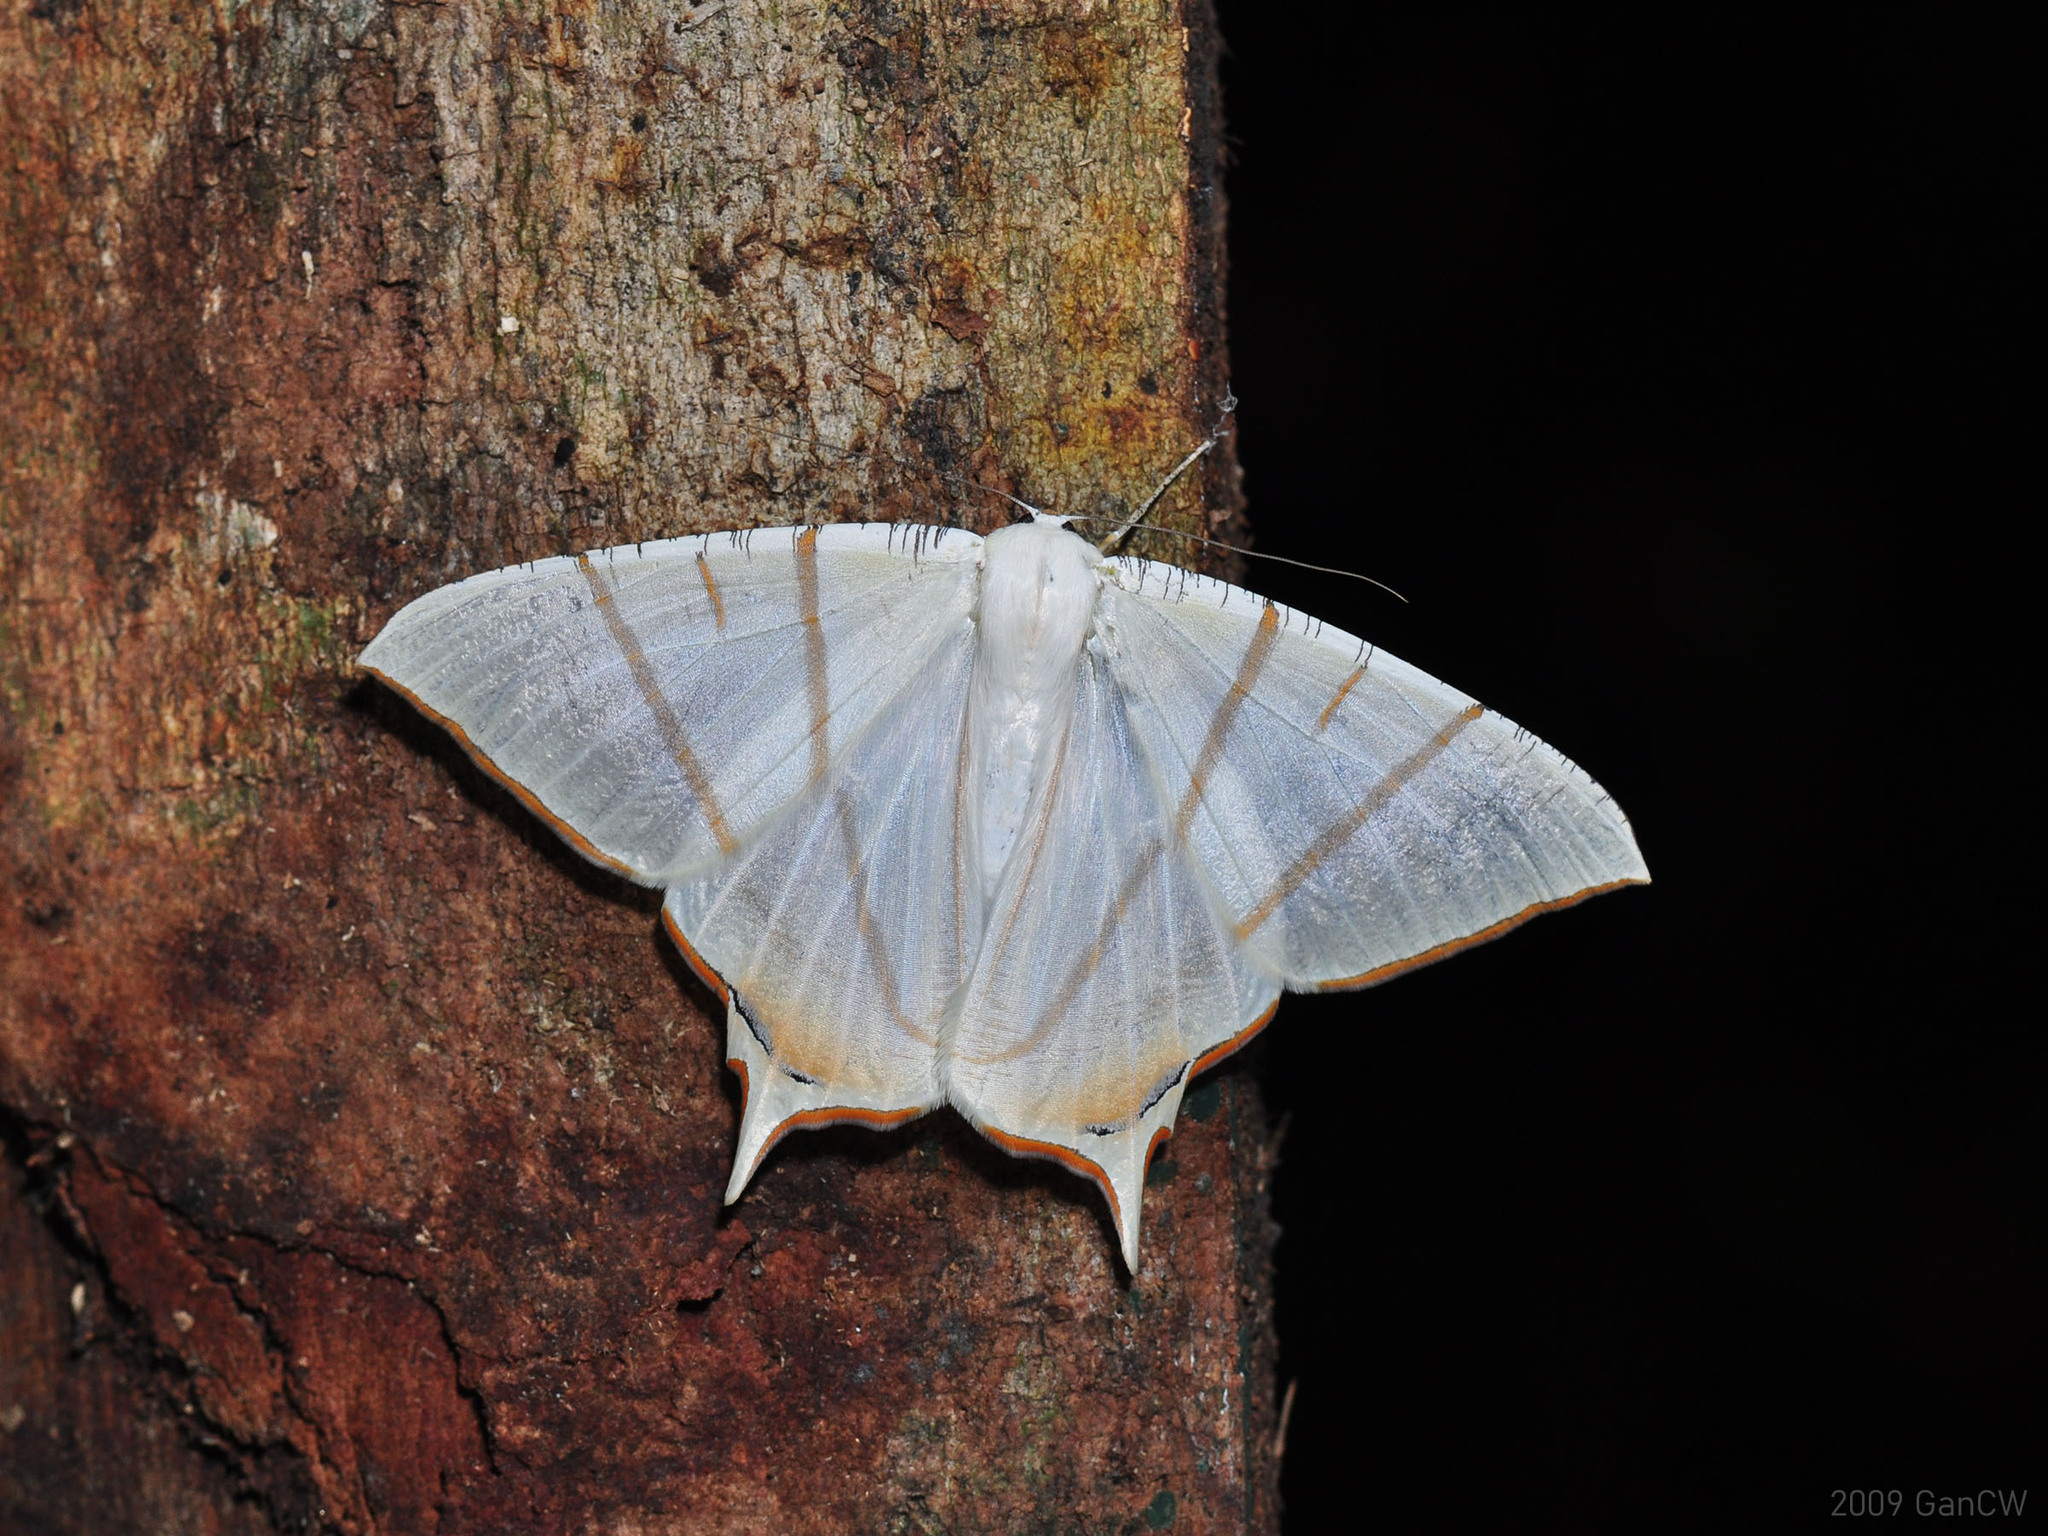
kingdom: Animalia
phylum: Arthropoda
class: Insecta
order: Lepidoptera
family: Geometridae
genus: Ourapteryx
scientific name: Ourapteryx claretta
